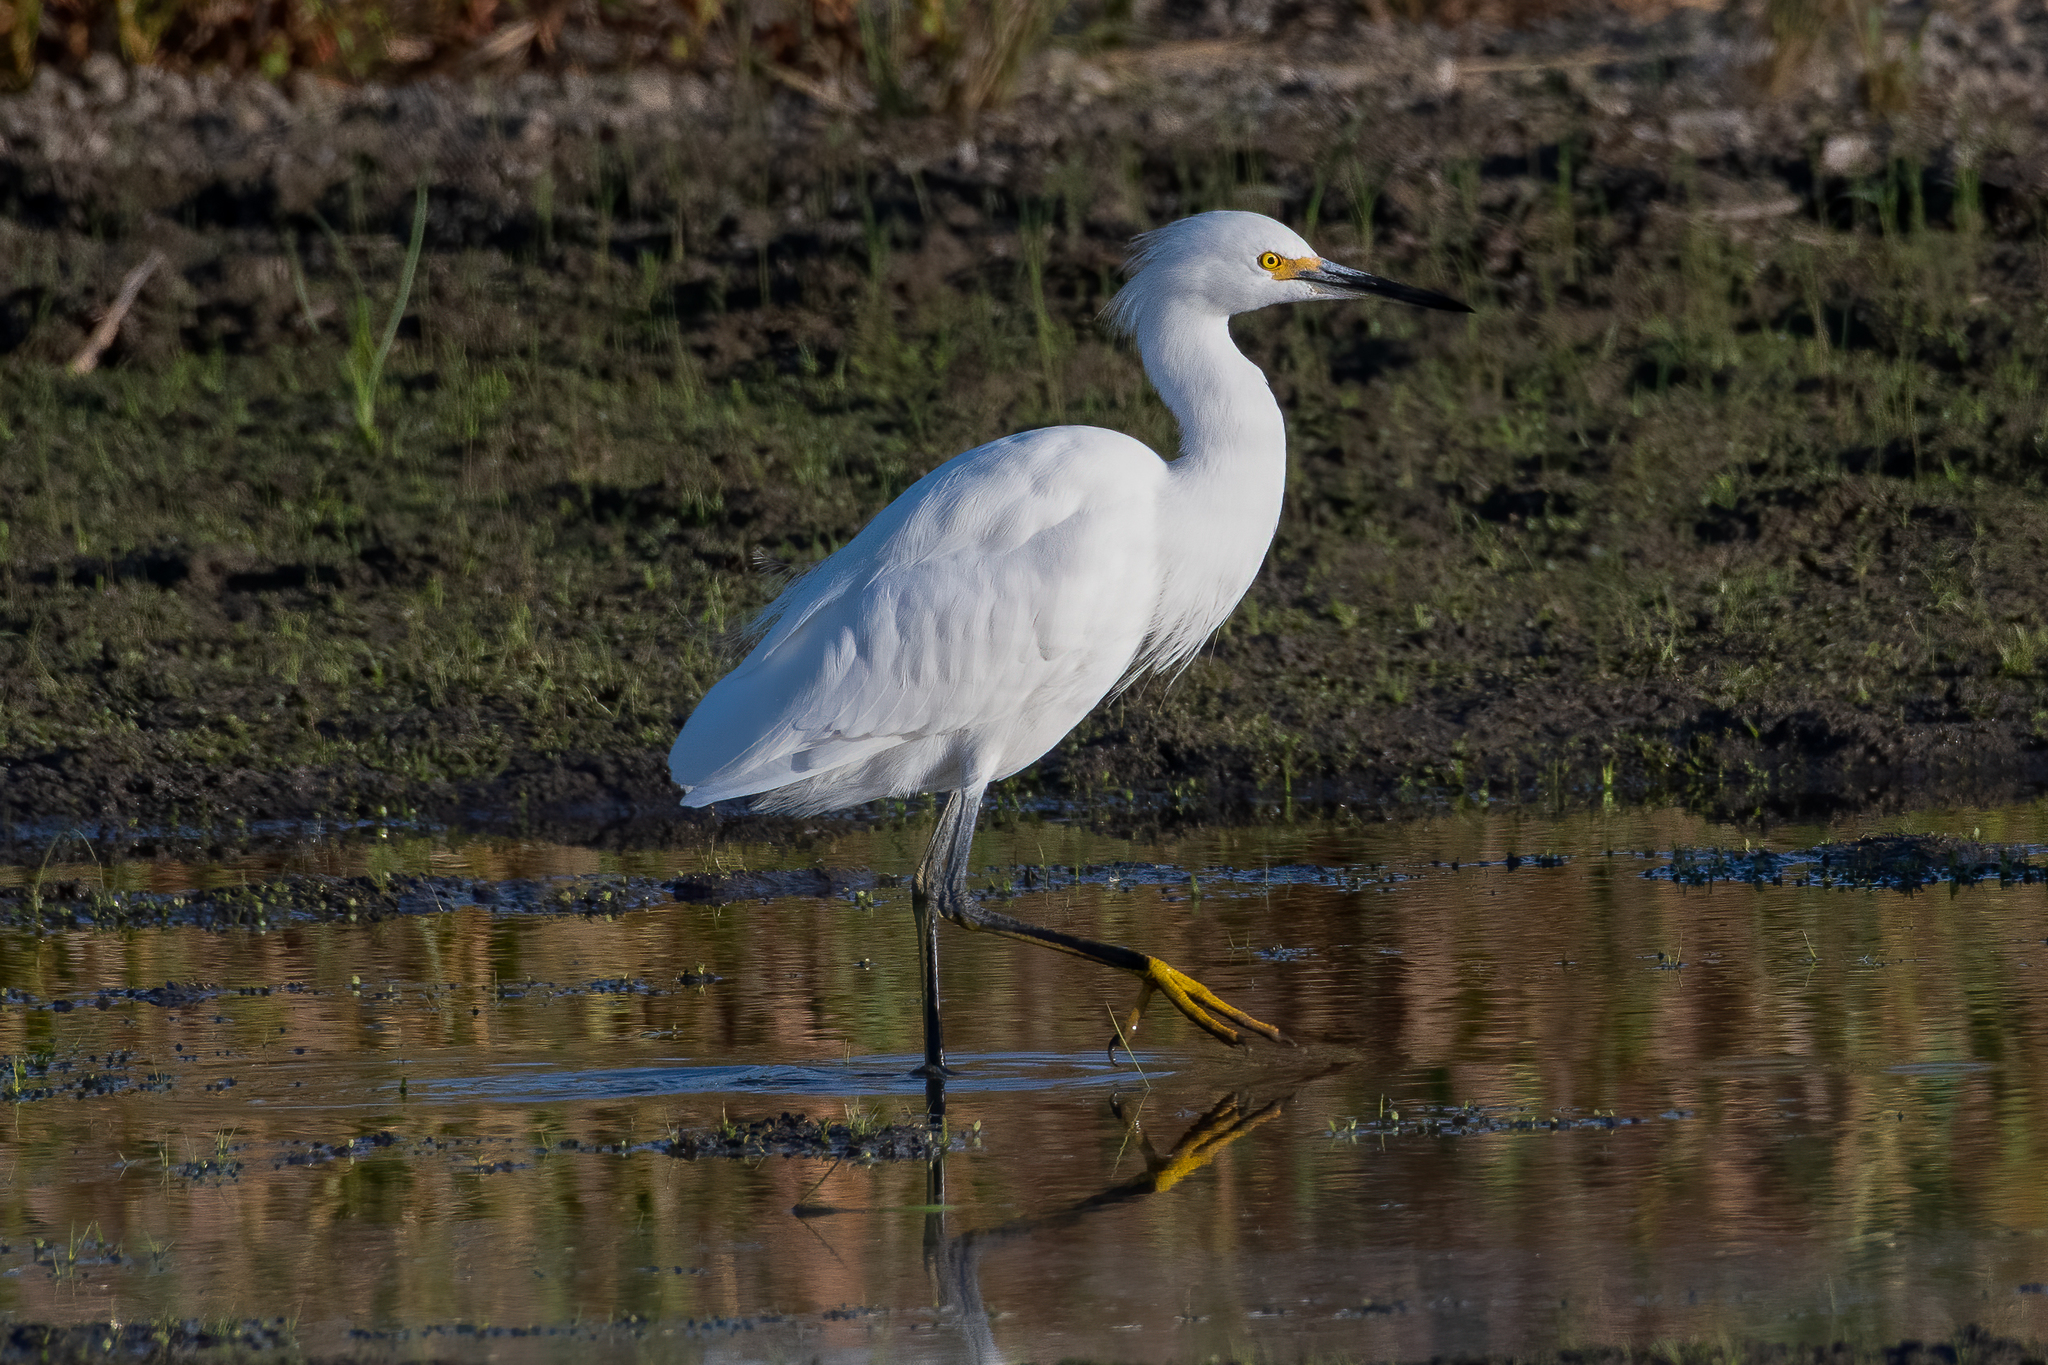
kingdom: Animalia
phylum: Chordata
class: Aves
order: Pelecaniformes
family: Ardeidae
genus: Egretta
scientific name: Egretta thula
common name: Snowy egret
